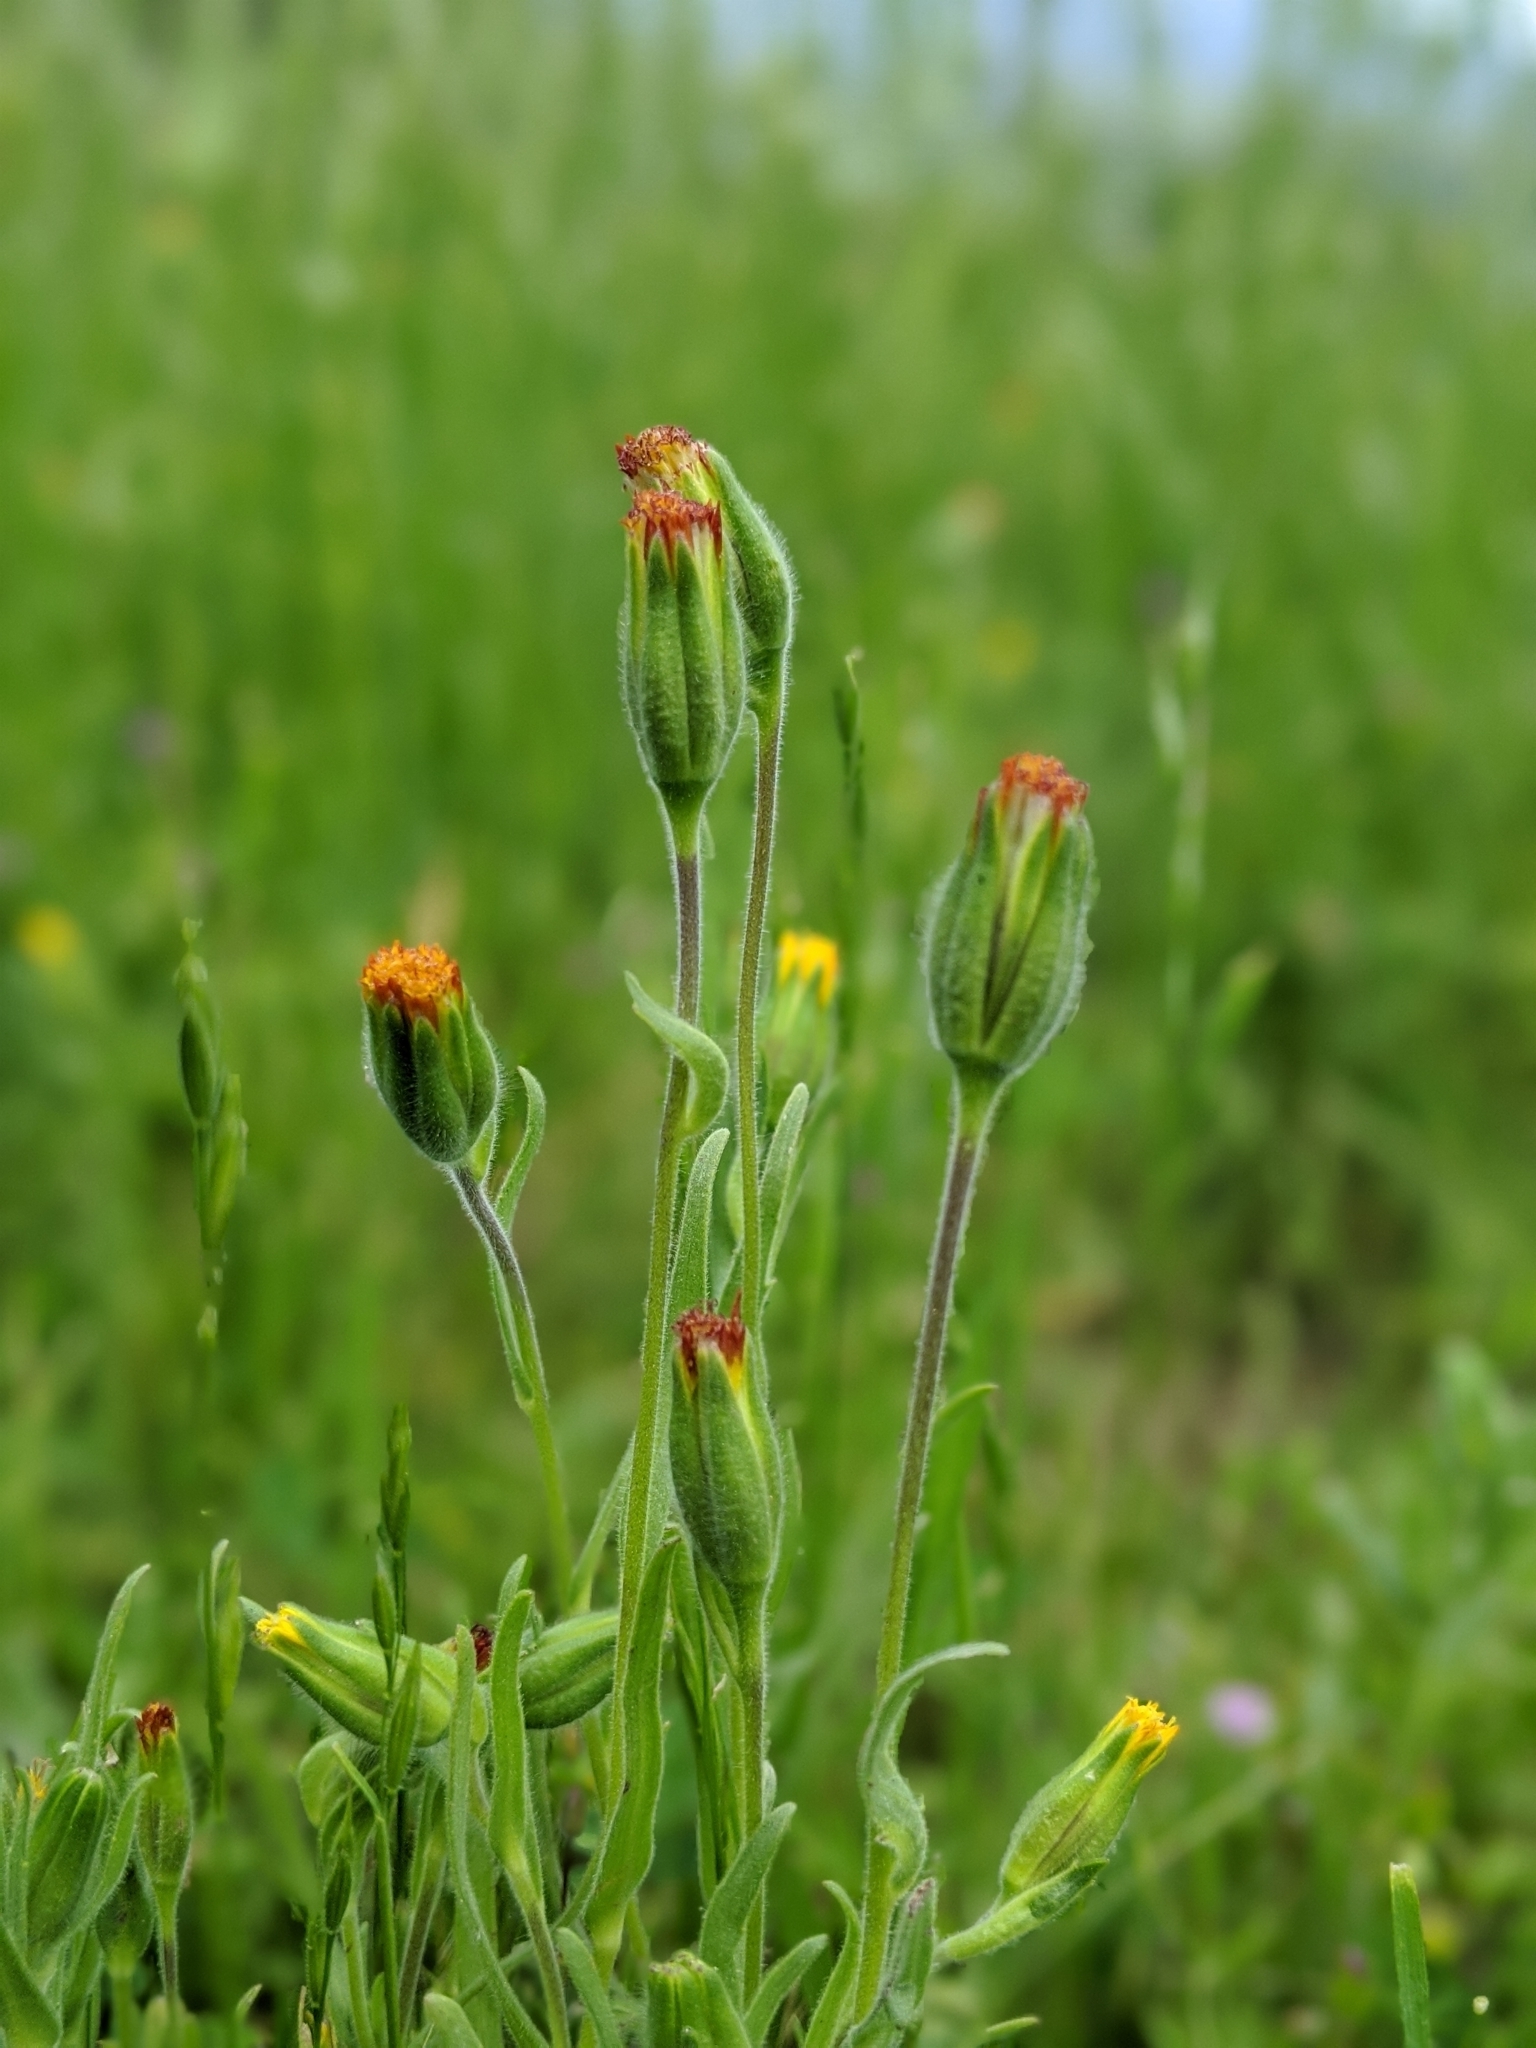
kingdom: Plantae
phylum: Tracheophyta
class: Magnoliopsida
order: Asterales
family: Asteraceae
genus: Achyrachaena
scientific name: Achyrachaena mollis
